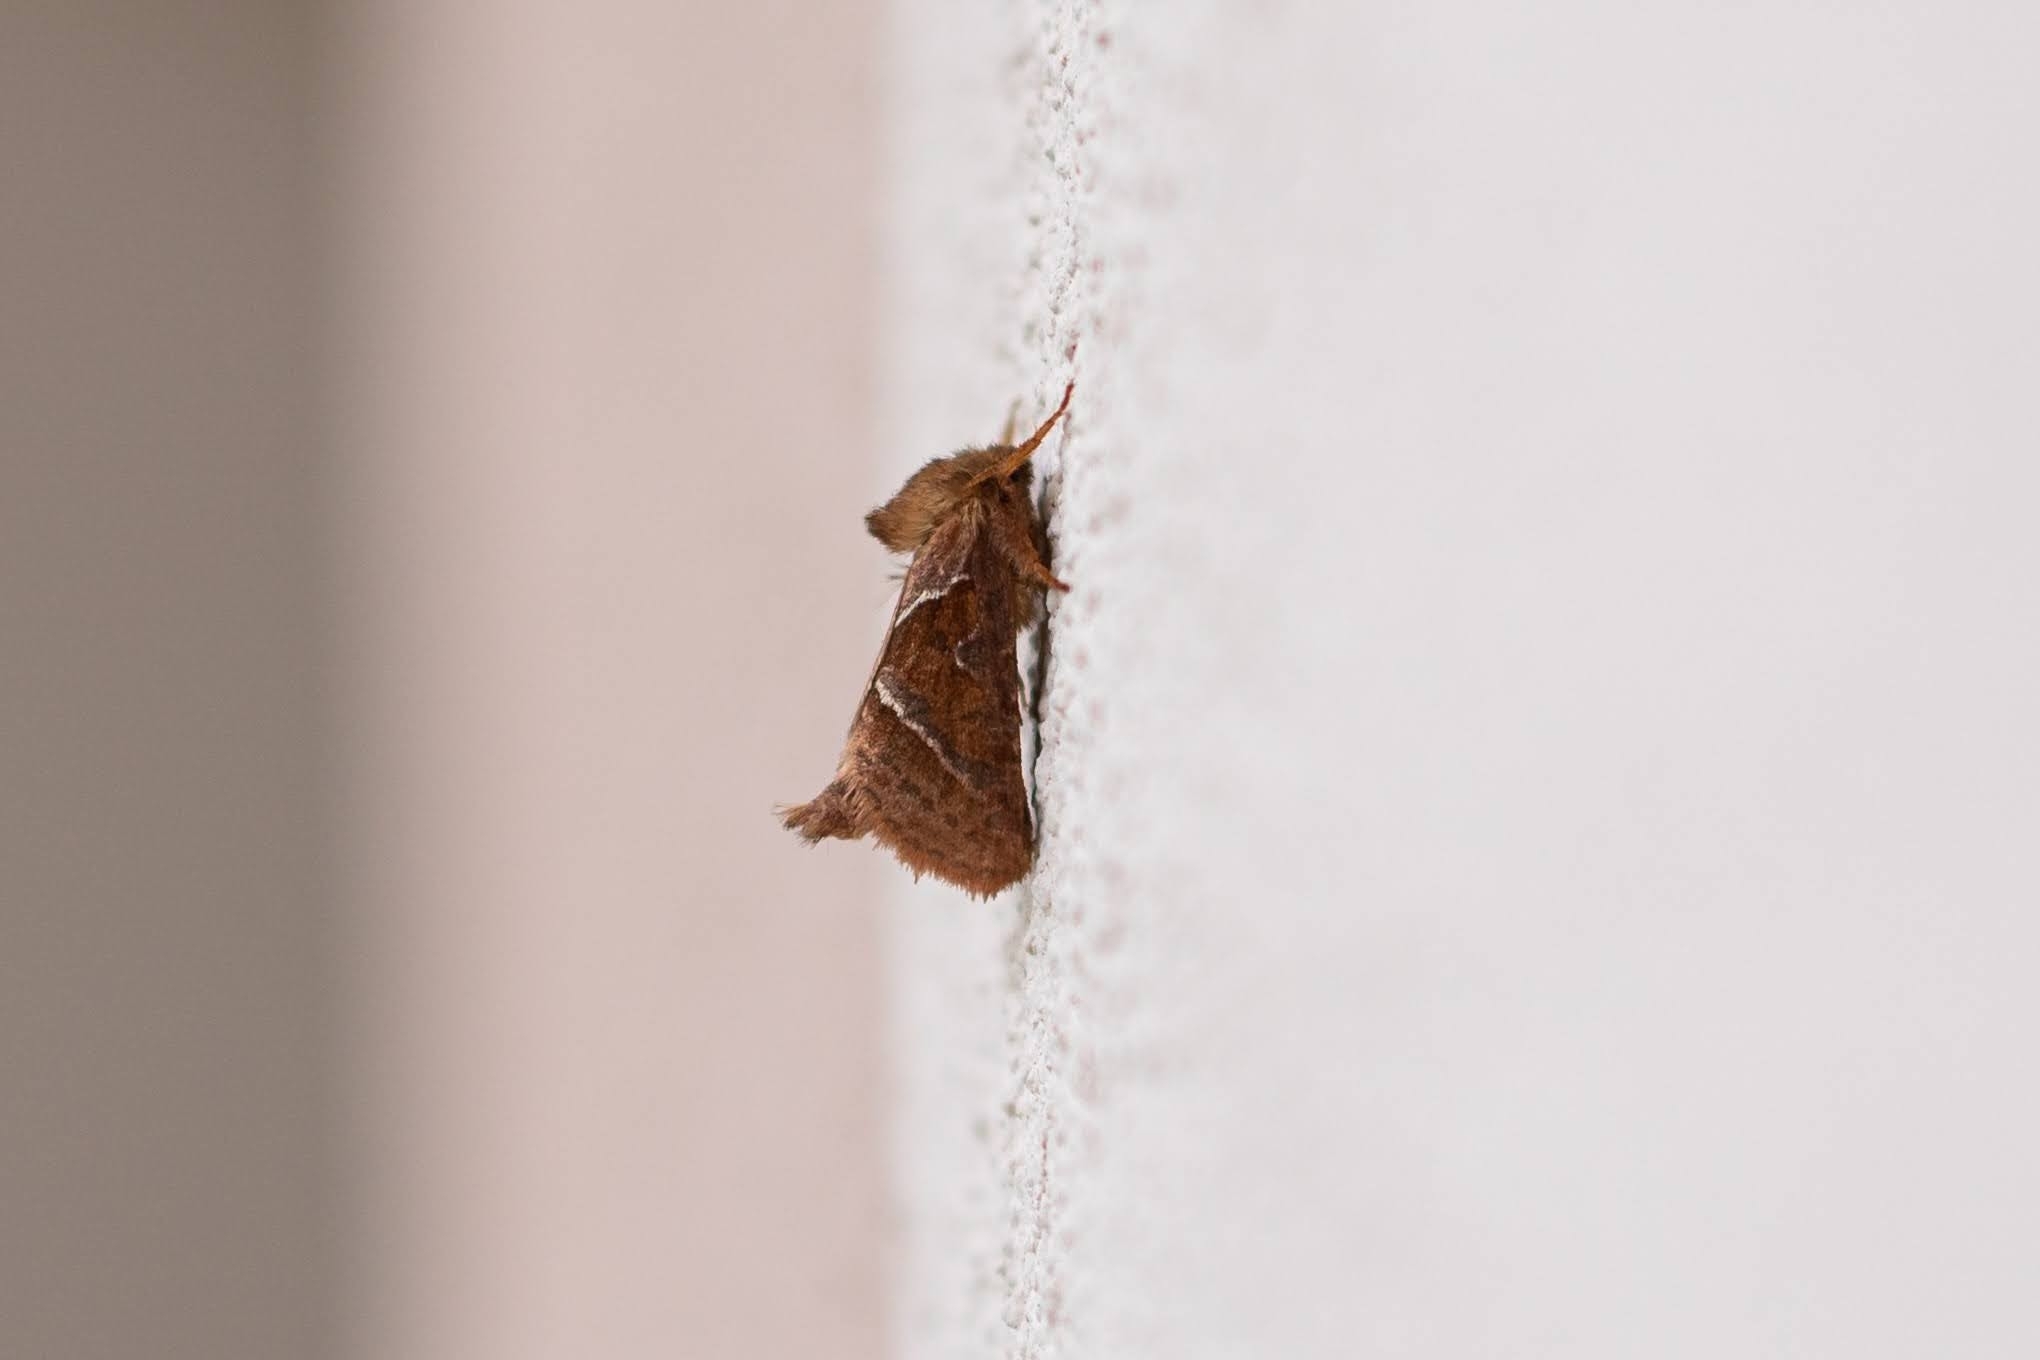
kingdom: Animalia
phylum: Arthropoda
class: Insecta
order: Lepidoptera
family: Hepialidae
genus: Triodia
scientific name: Triodia sylvina
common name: Orange swift
